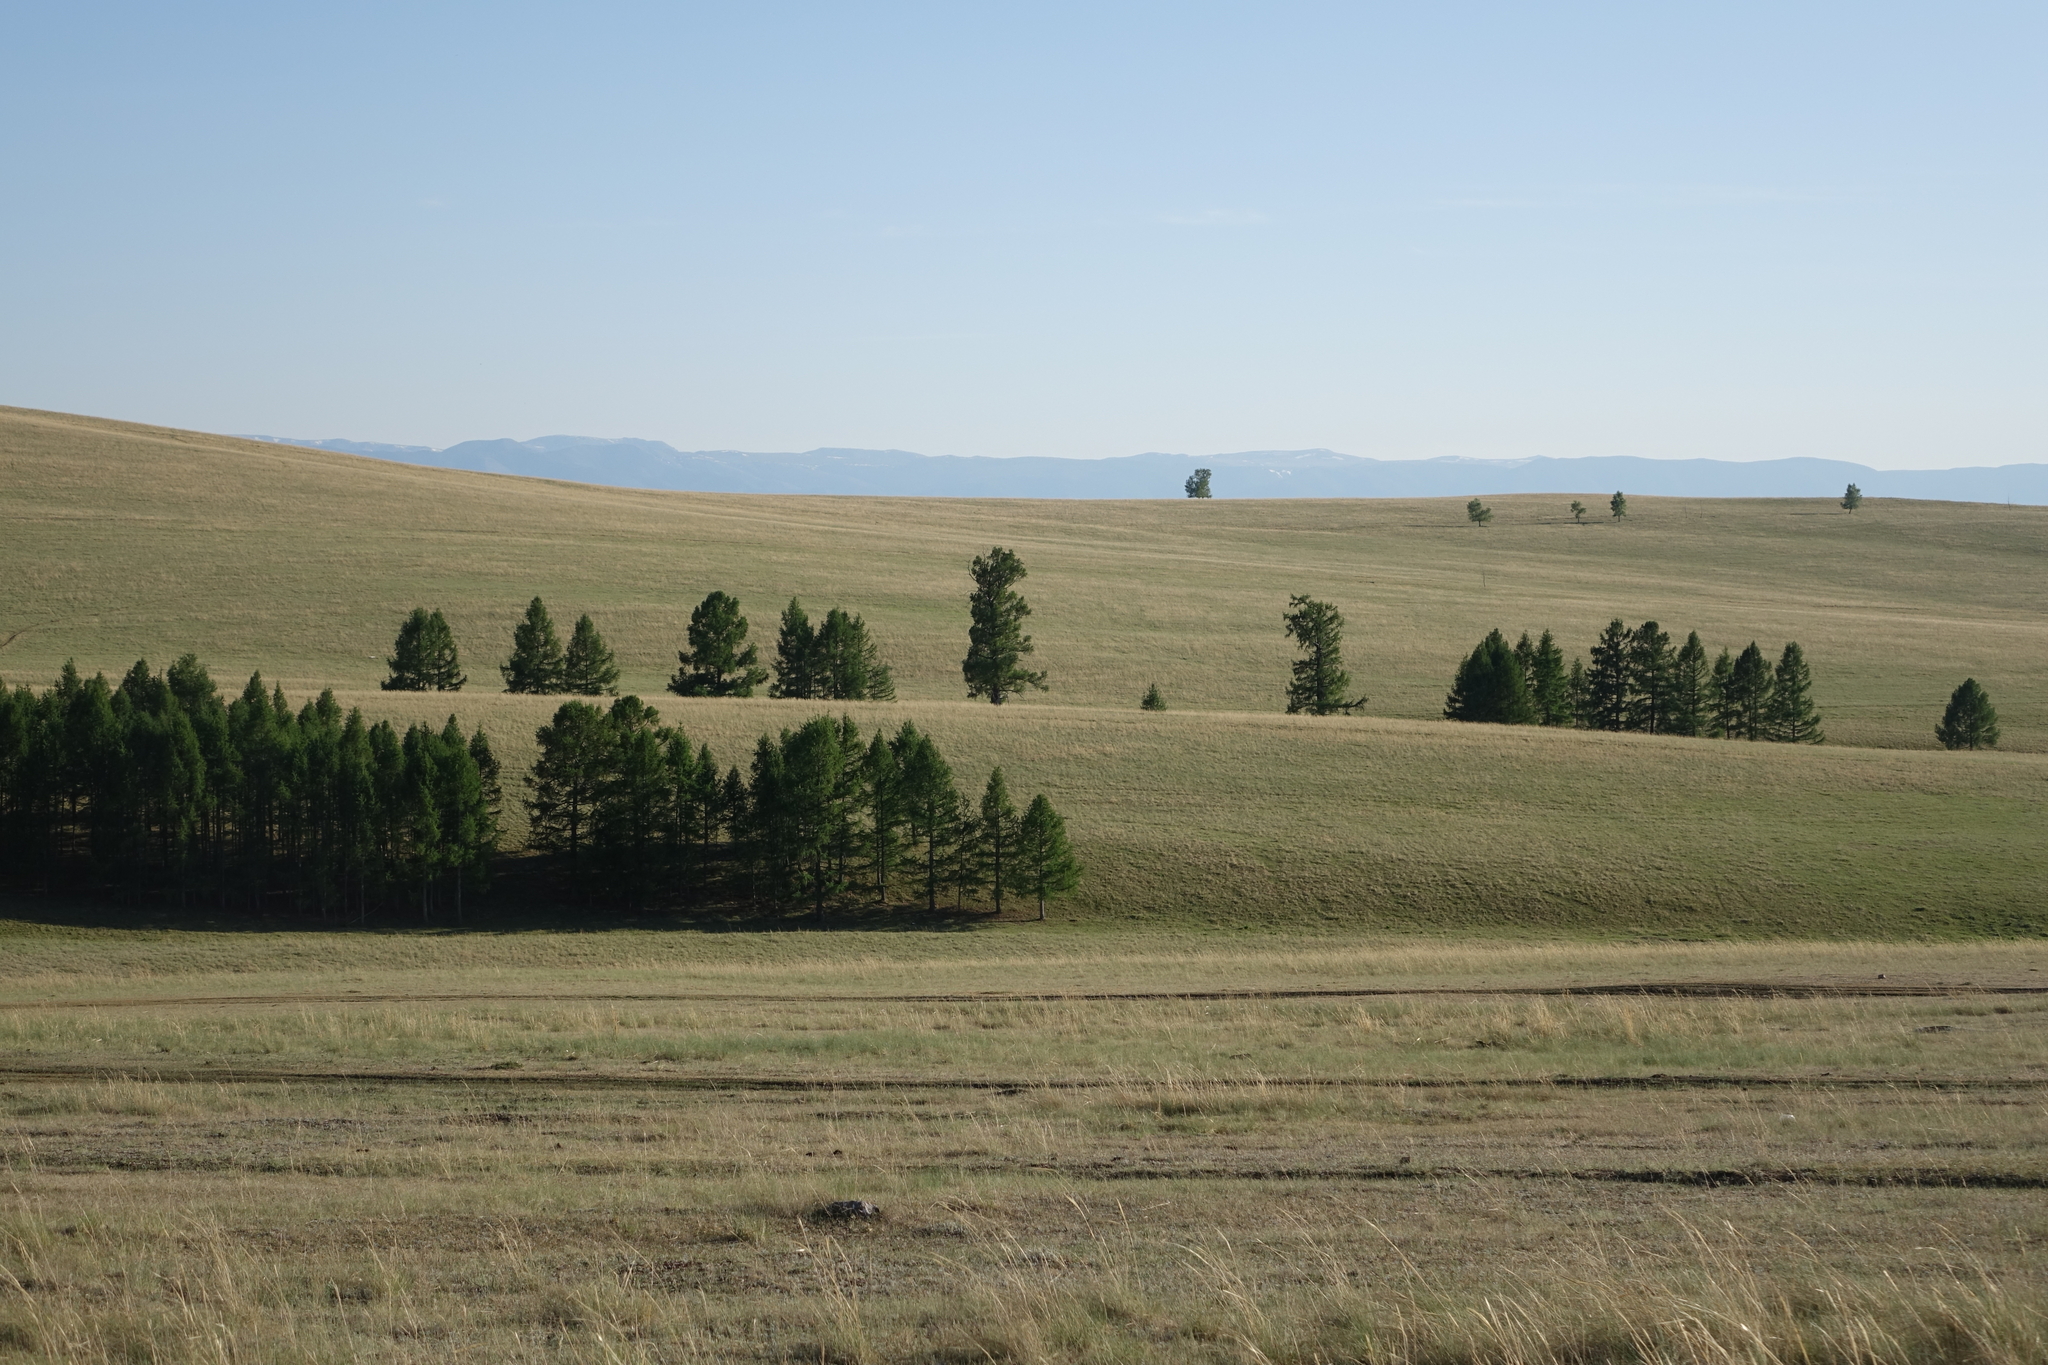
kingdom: Plantae
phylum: Tracheophyta
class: Pinopsida
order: Pinales
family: Pinaceae
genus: Larix
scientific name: Larix sibirica
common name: Siberian larch
